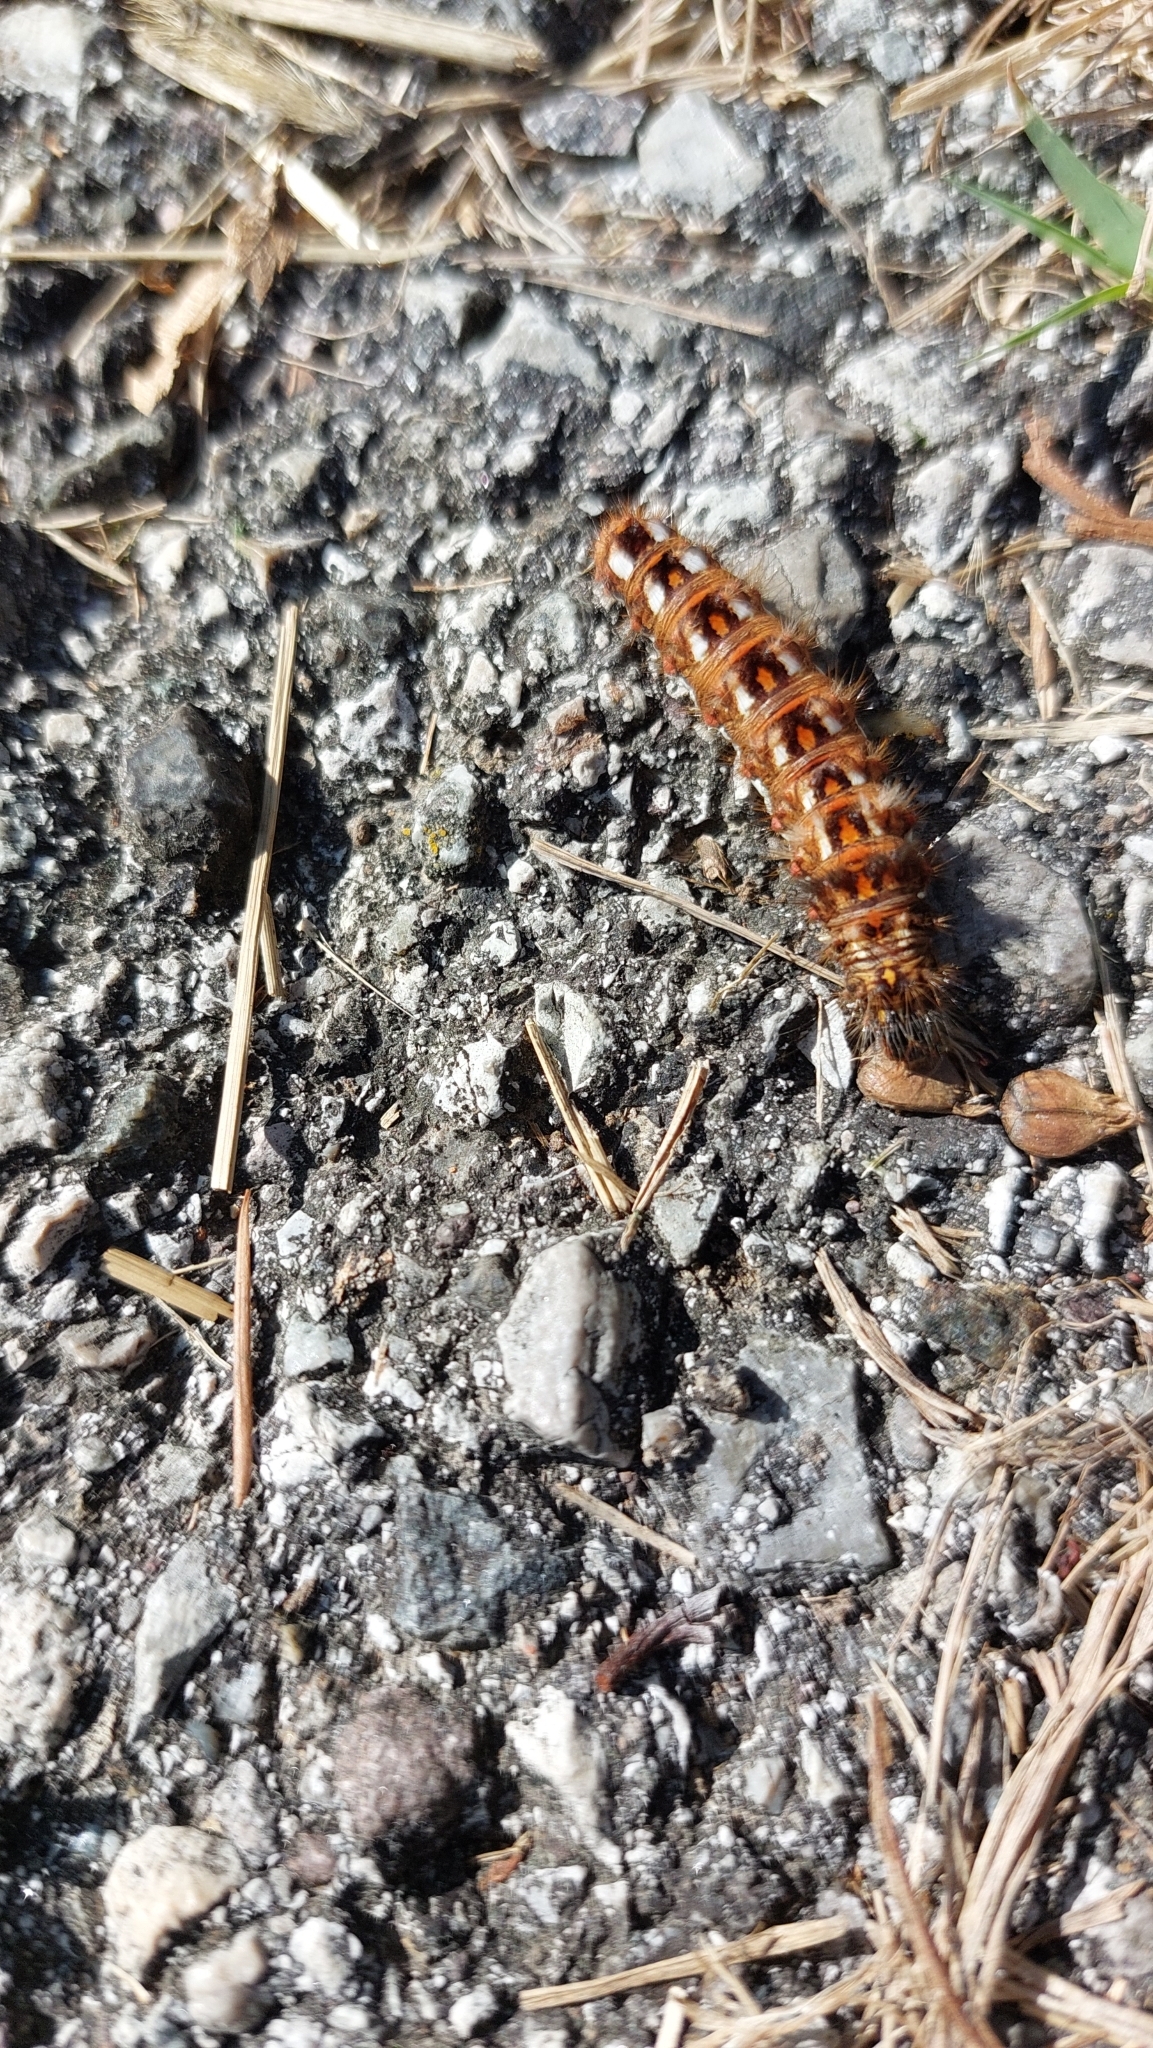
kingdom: Animalia
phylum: Arthropoda
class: Insecta
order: Lepidoptera
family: Noctuidae
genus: Acronicta
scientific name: Acronicta rumicis
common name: Knot grass
